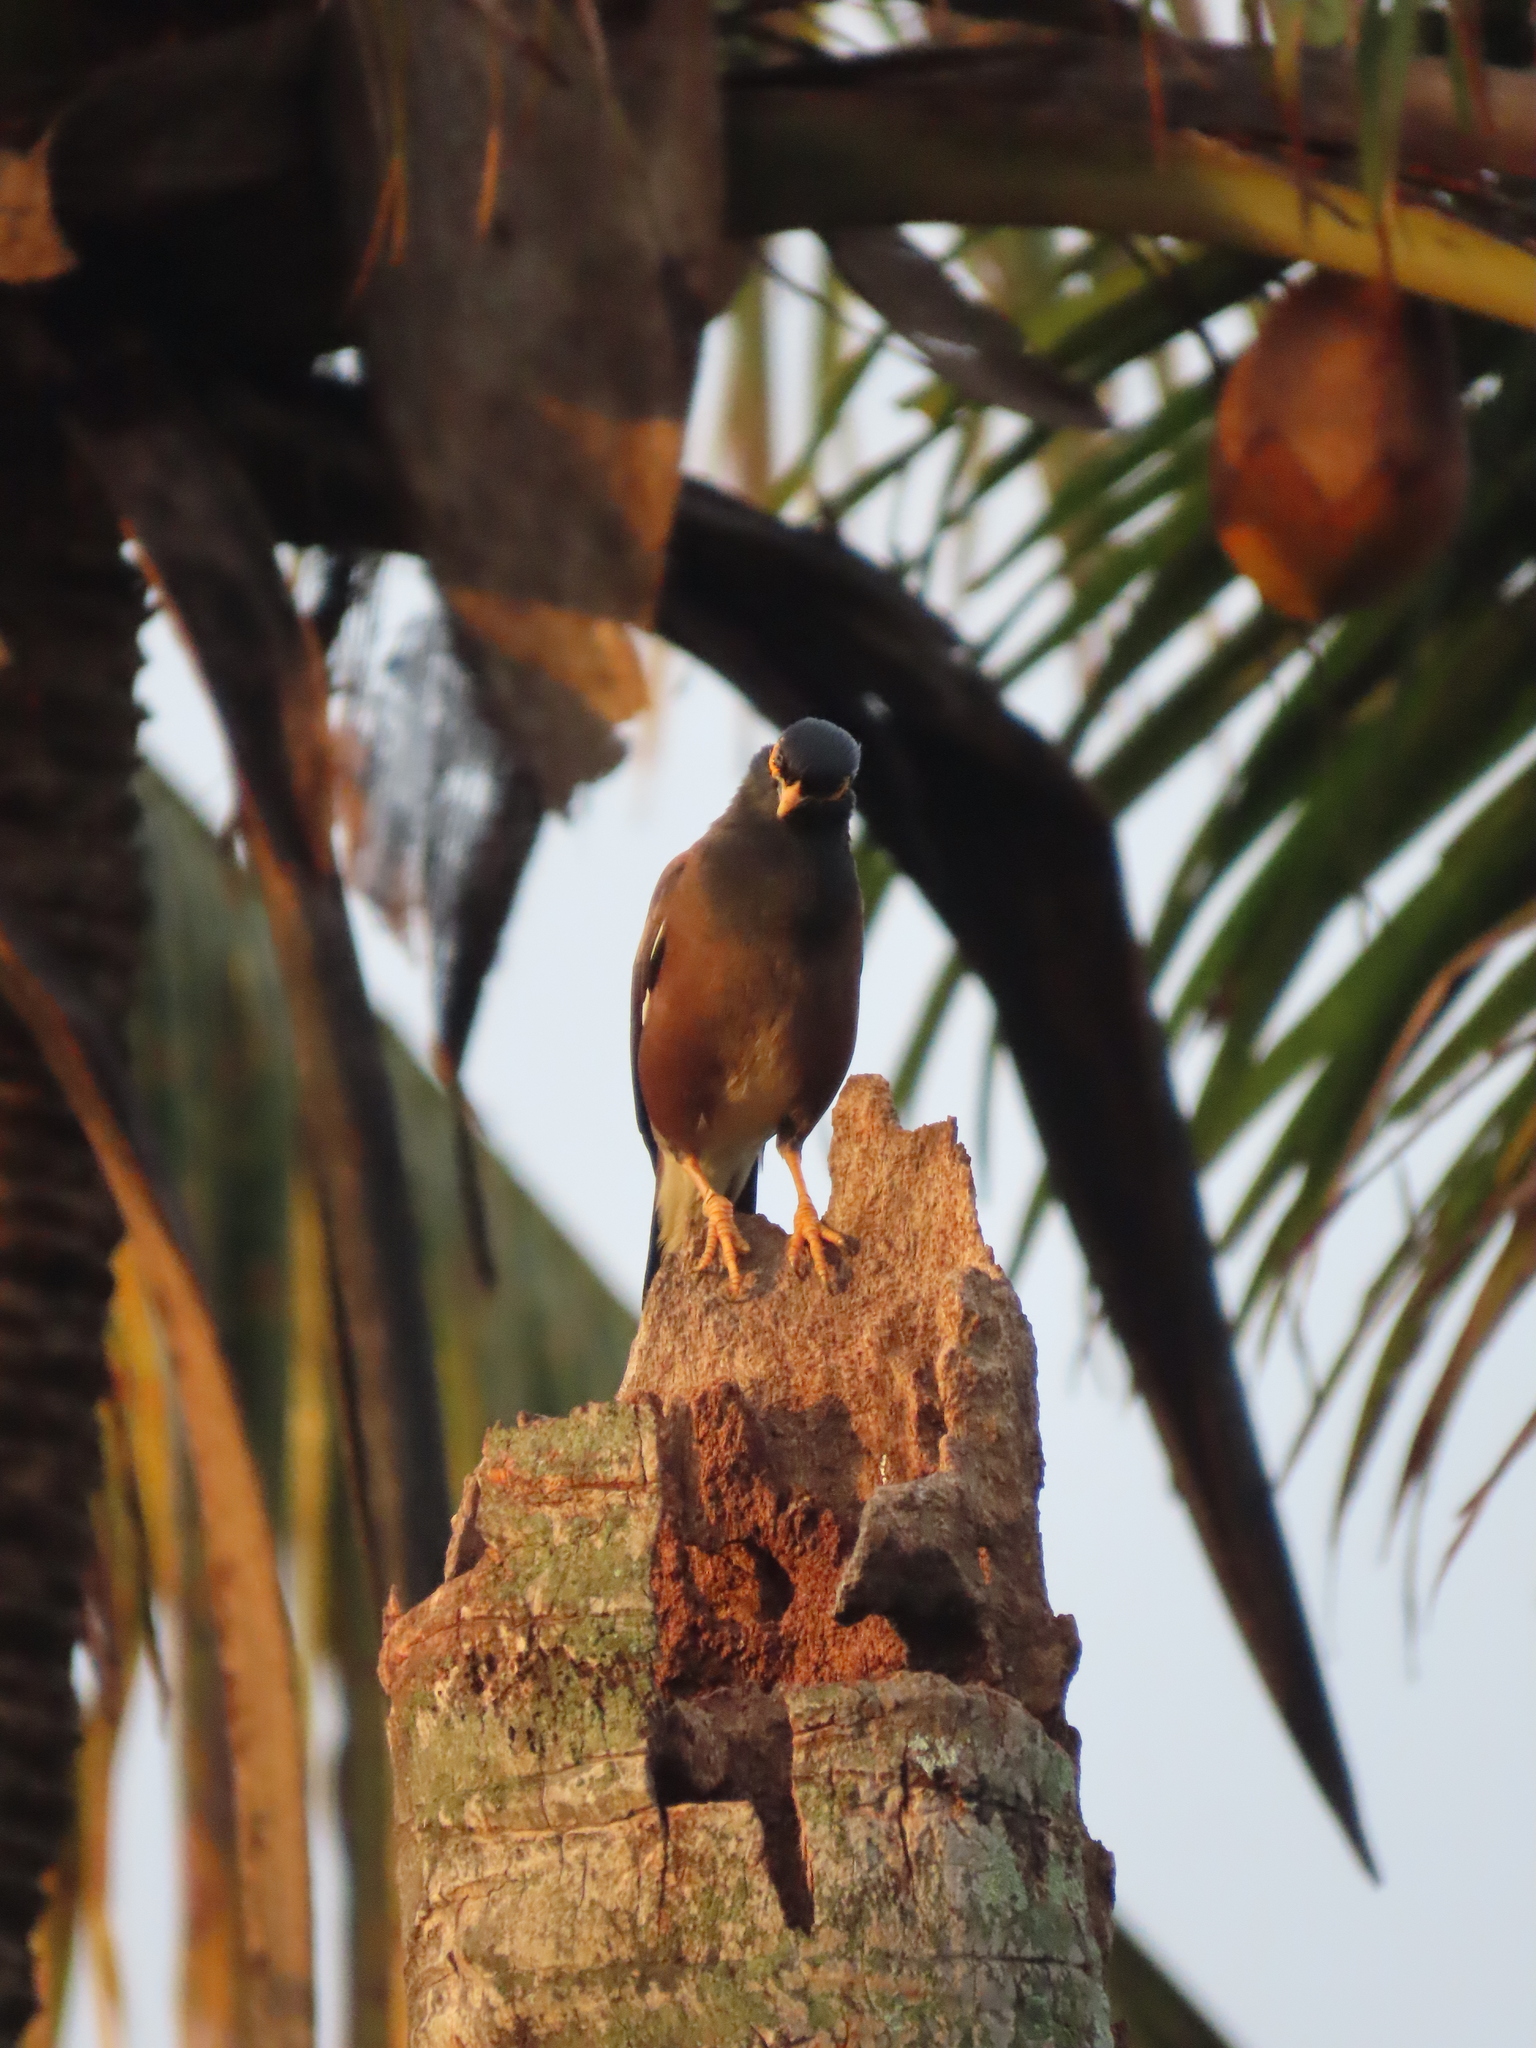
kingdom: Animalia
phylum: Chordata
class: Aves
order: Passeriformes
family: Sturnidae
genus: Acridotheres
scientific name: Acridotheres tristis
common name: Common myna
